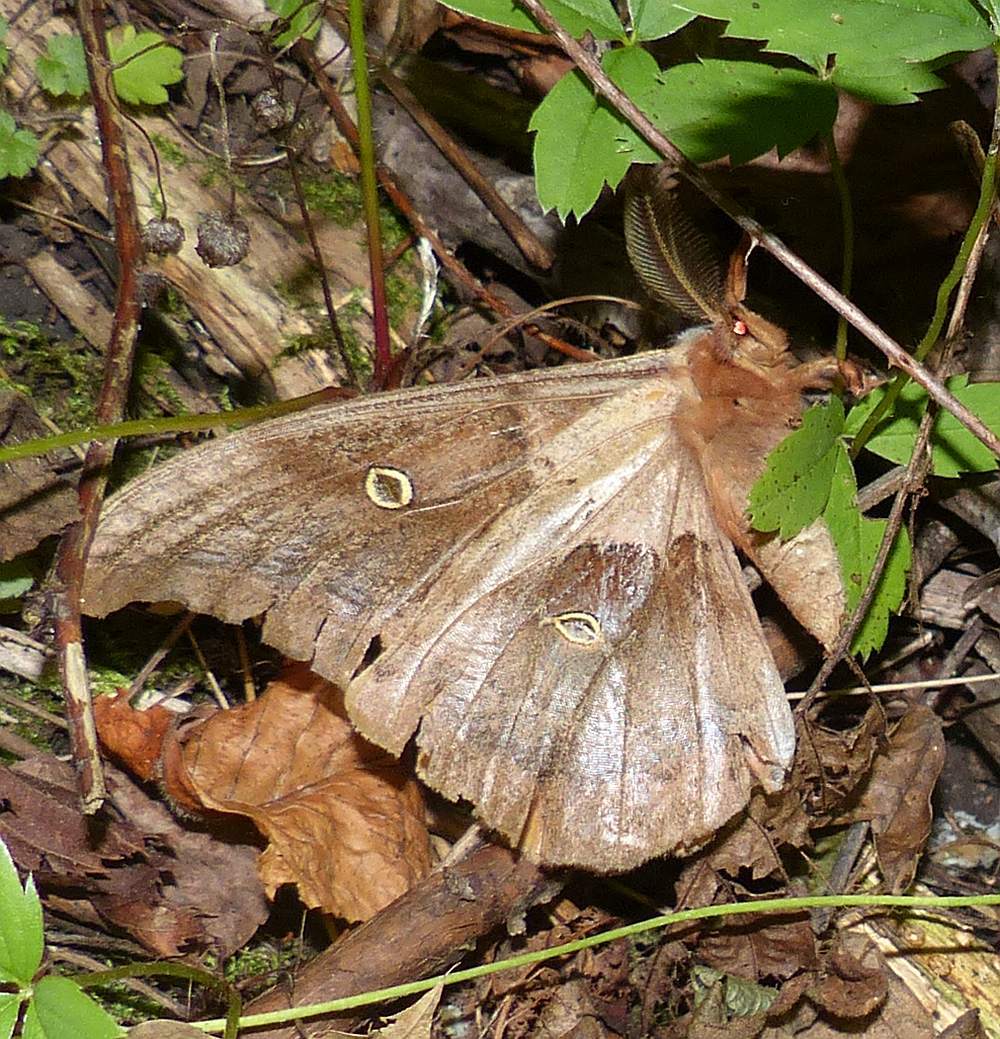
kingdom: Animalia
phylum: Arthropoda
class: Insecta
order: Lepidoptera
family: Saturniidae
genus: Antheraea
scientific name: Antheraea polyphemus
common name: Polyphemus moth
